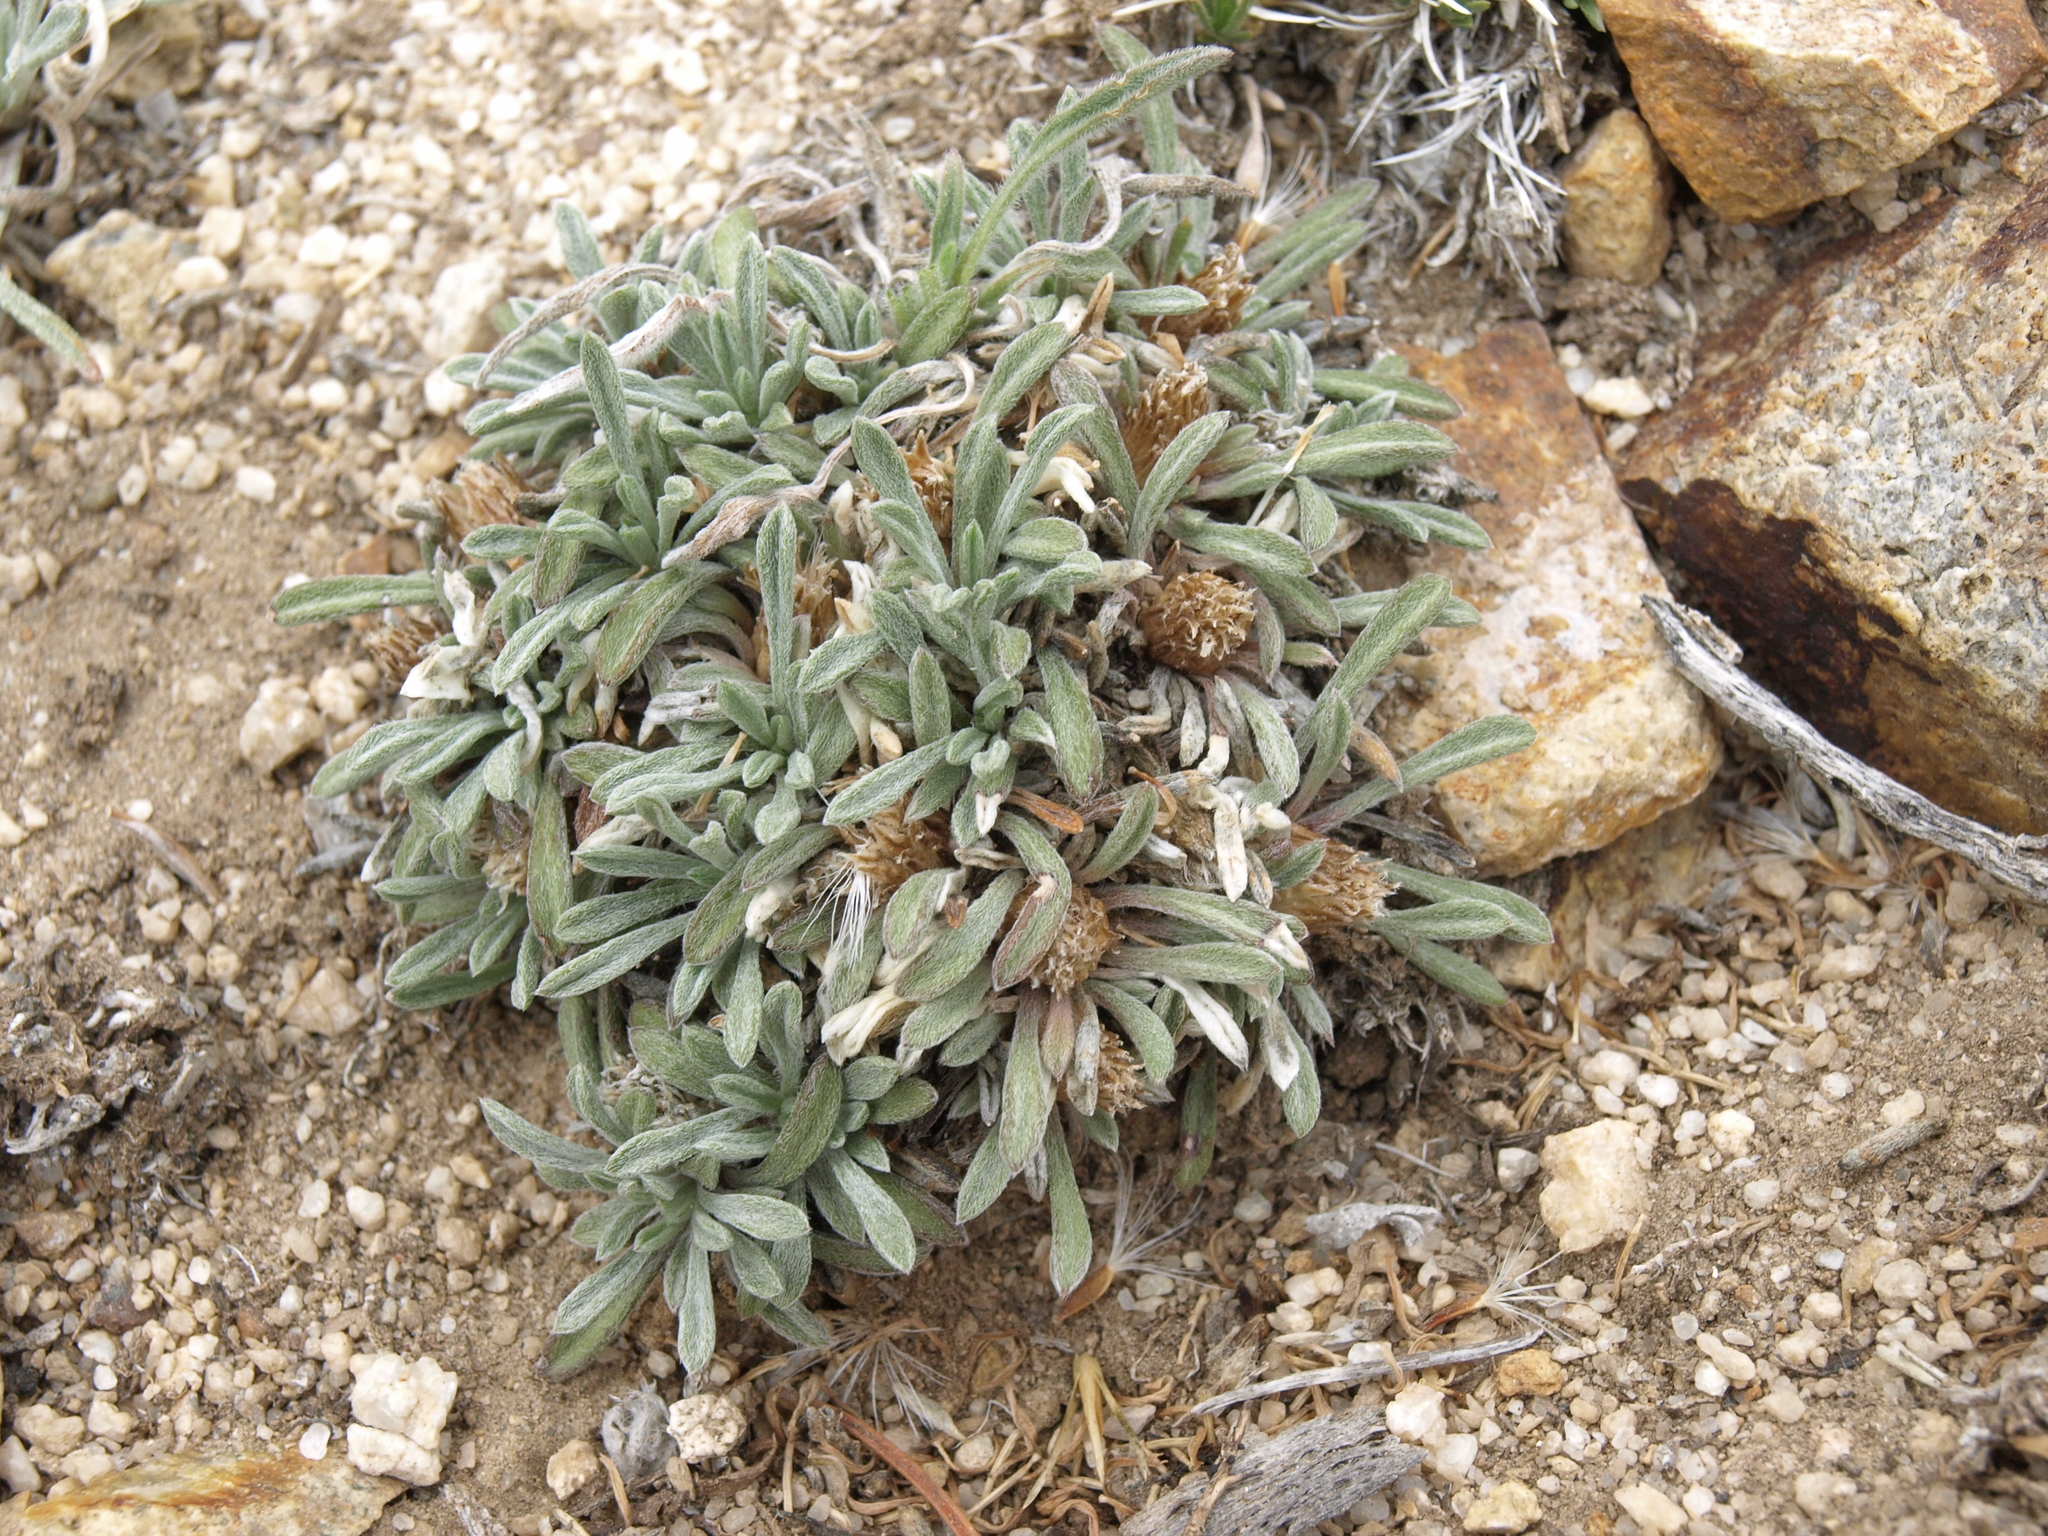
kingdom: Plantae
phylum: Tracheophyta
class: Magnoliopsida
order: Asterales
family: Asteraceae
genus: Townsendia
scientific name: Townsendia leptotes
